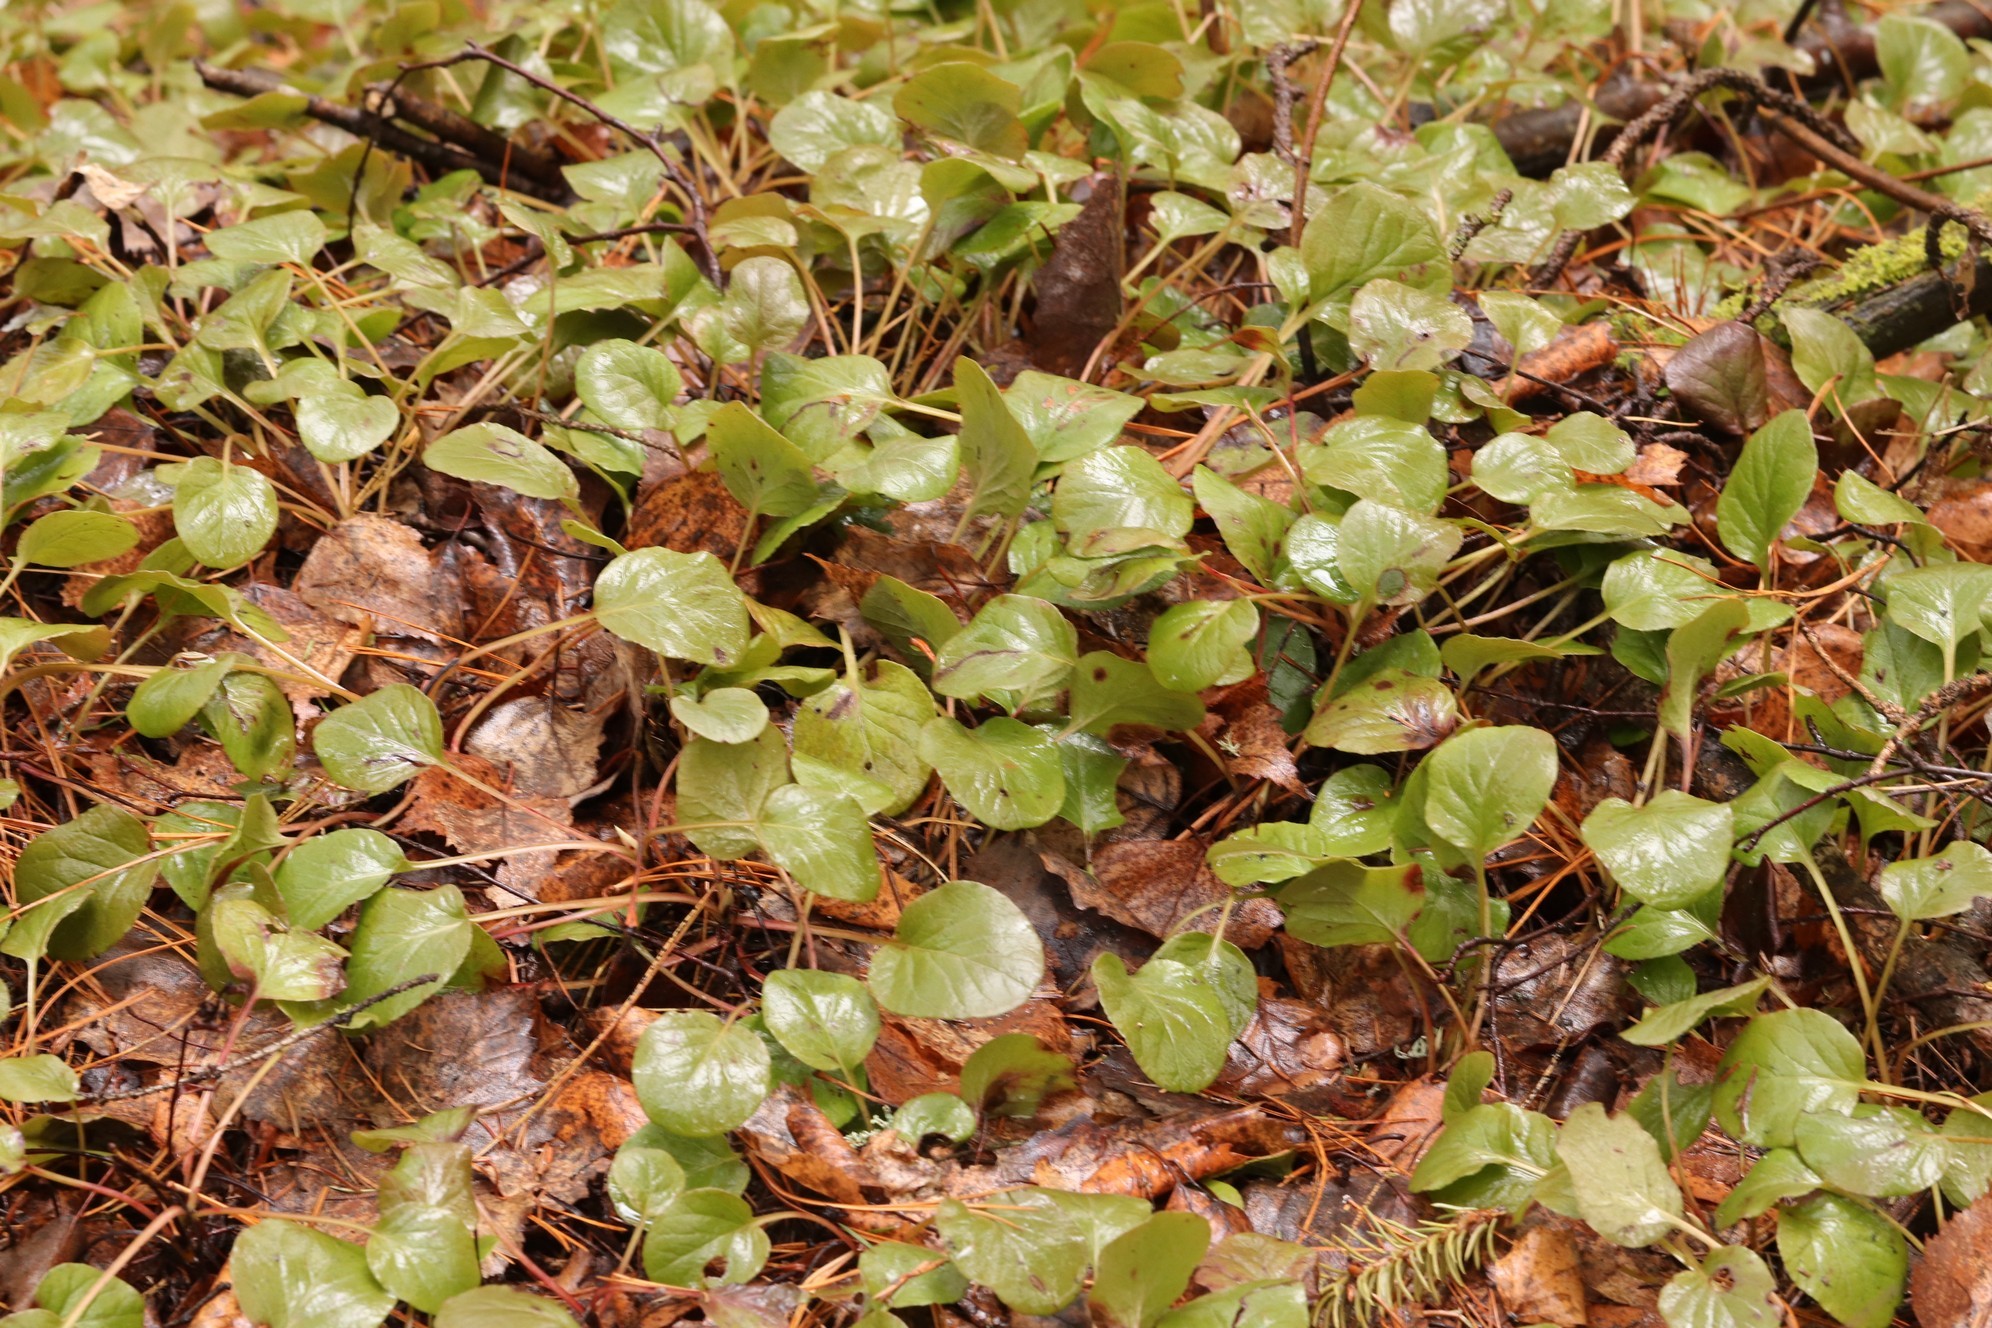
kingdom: Plantae
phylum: Tracheophyta
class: Magnoliopsida
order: Ericales
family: Ericaceae
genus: Pyrola
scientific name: Pyrola rotundifolia
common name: Round-leaved wintergreen
